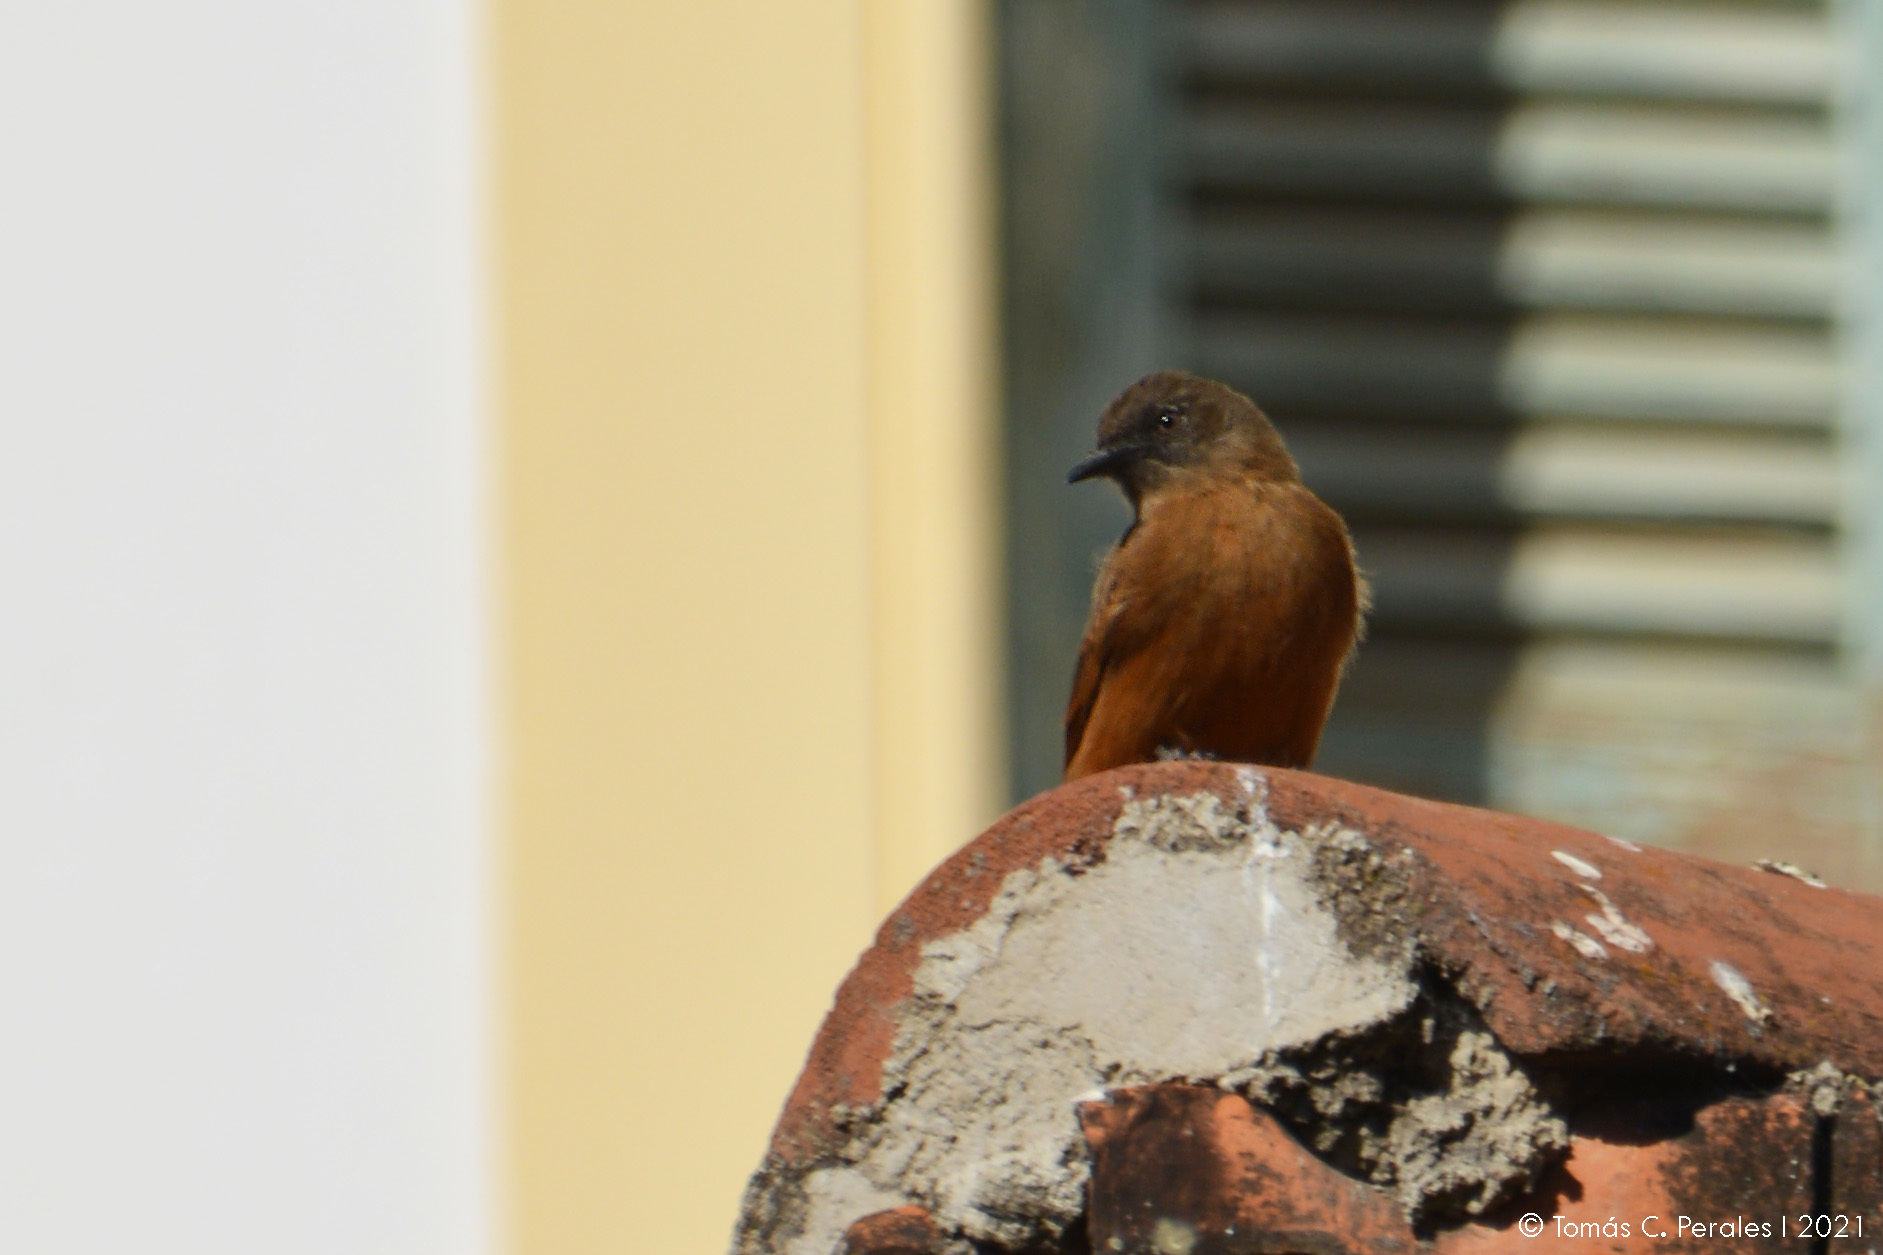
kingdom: Animalia
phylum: Chordata
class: Aves
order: Passeriformes
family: Tyrannidae
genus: Hirundinea
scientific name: Hirundinea ferruginea
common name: Cliff flycatcher
